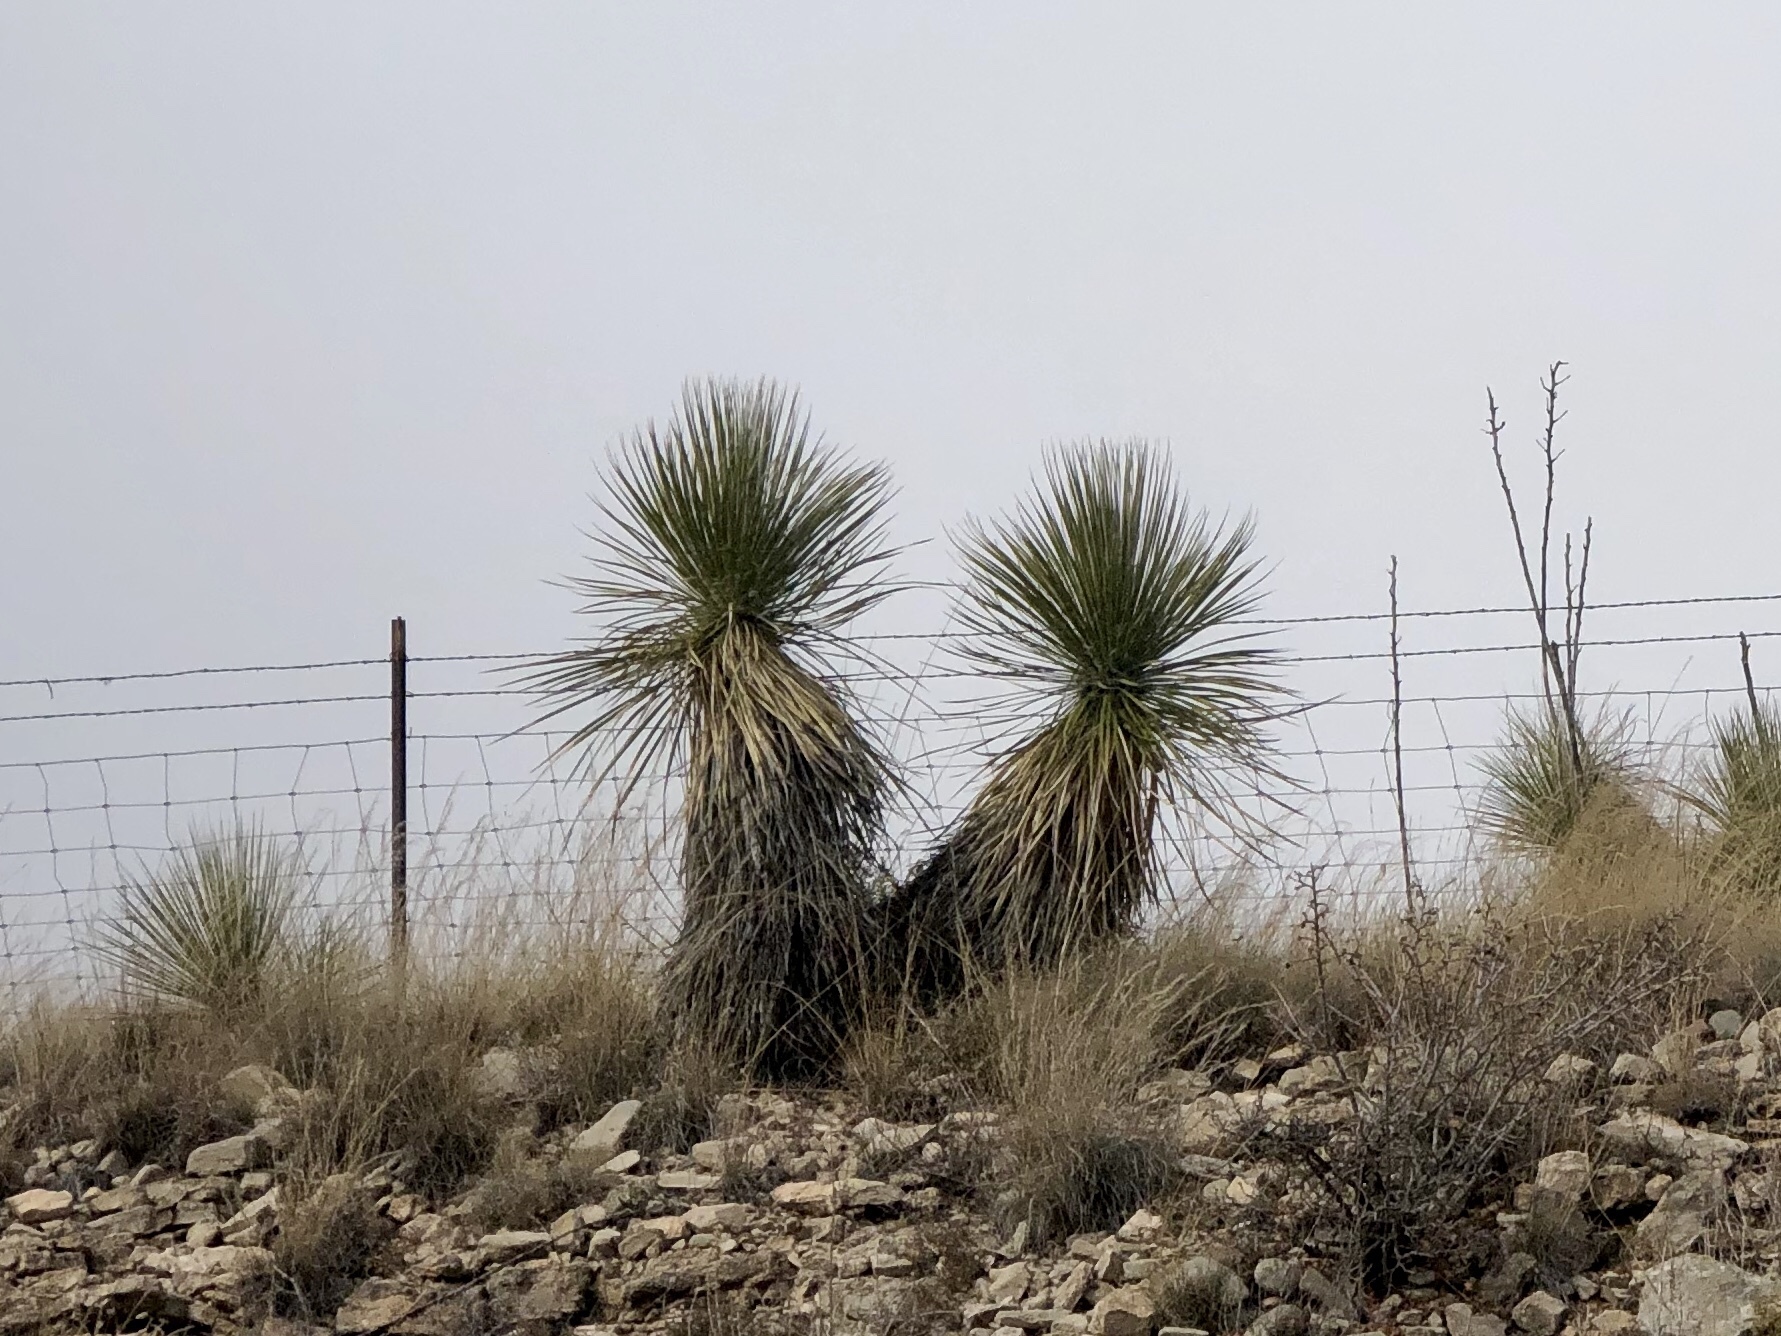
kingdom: Plantae
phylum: Tracheophyta
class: Liliopsida
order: Asparagales
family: Asparagaceae
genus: Yucca
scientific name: Yucca elata
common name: Palmella
